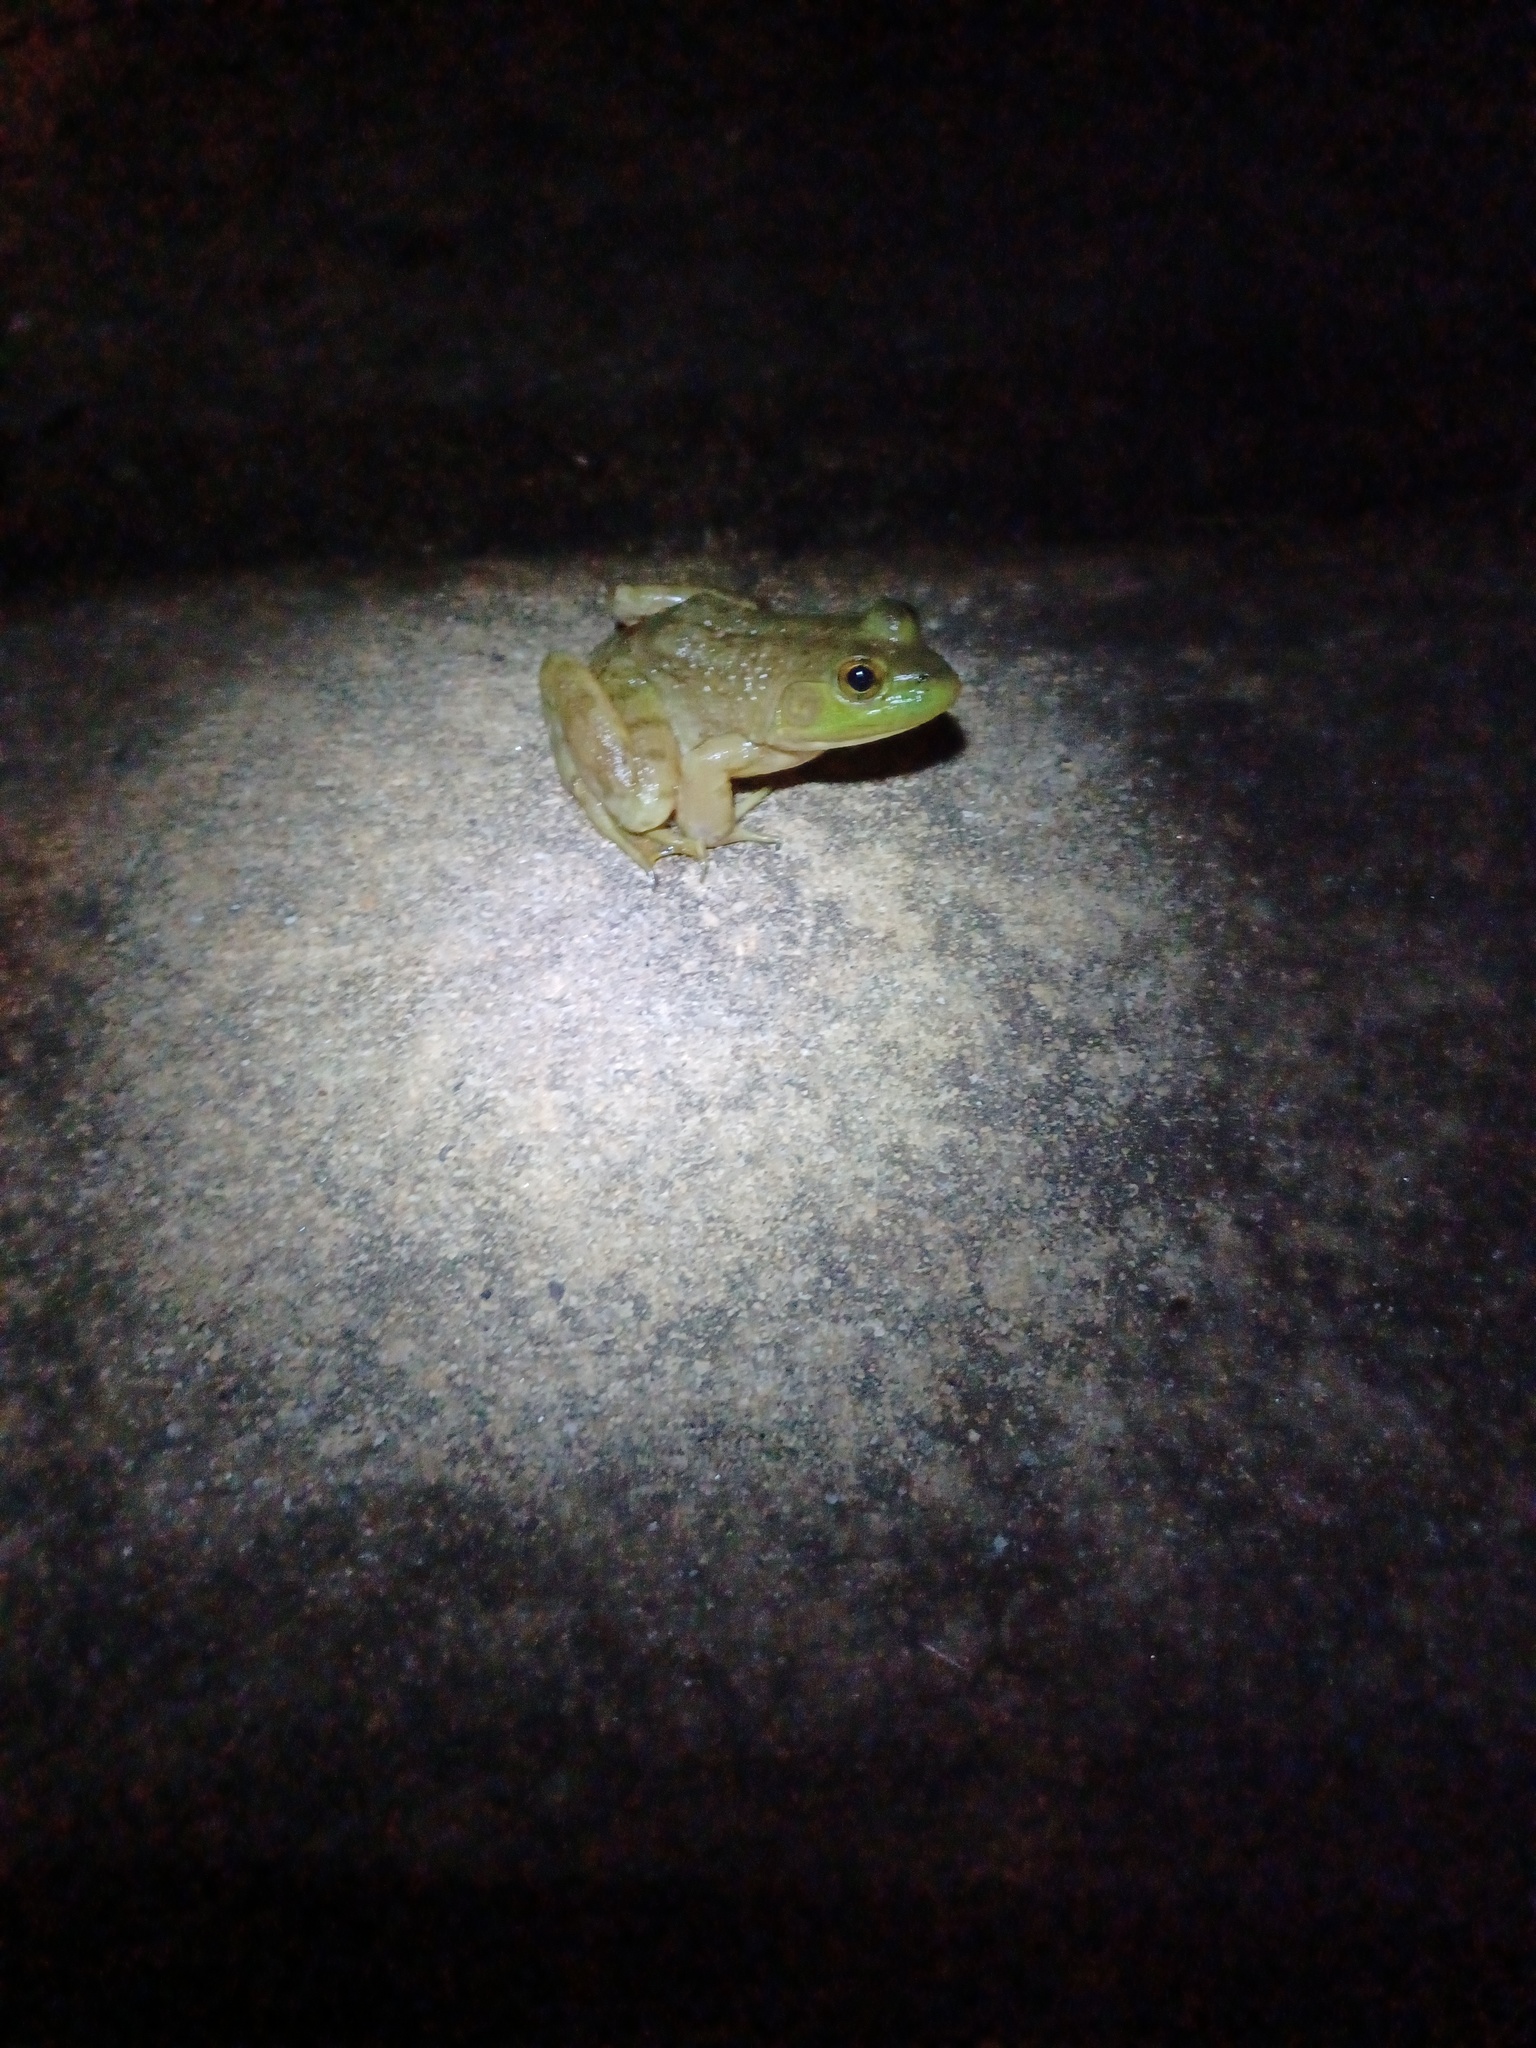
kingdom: Animalia
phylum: Chordata
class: Amphibia
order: Anura
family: Ranidae
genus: Lithobates
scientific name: Lithobates catesbeianus
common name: American bullfrog
